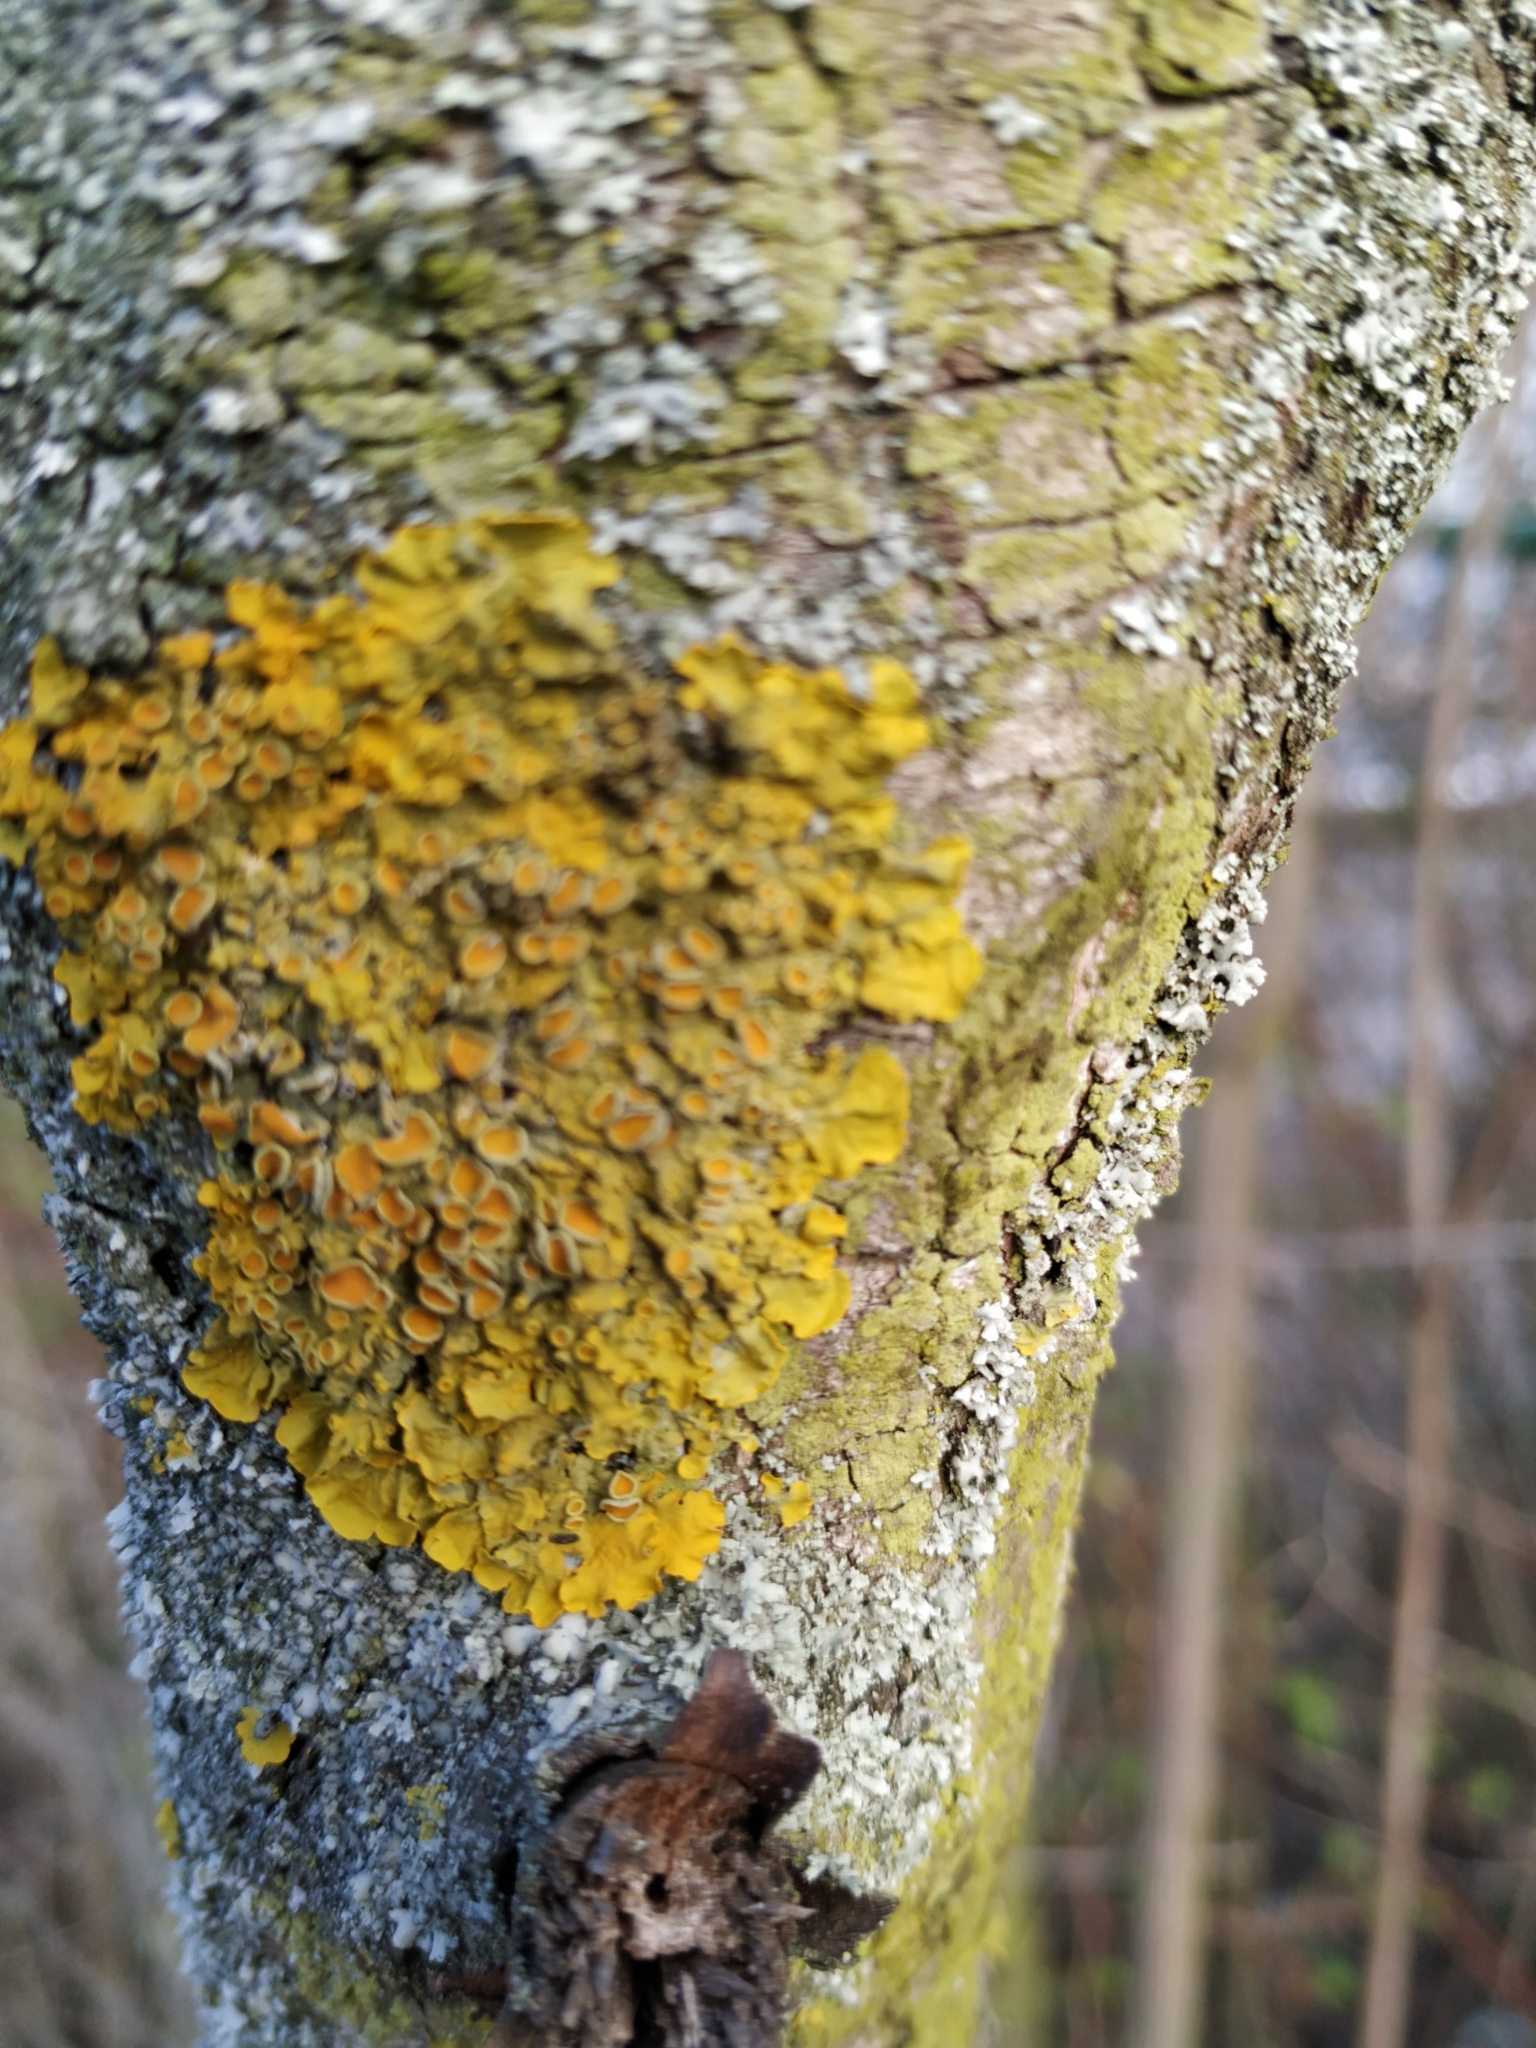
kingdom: Fungi
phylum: Ascomycota
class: Lecanoromycetes
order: Teloschistales
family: Teloschistaceae
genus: Xanthoria
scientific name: Xanthoria parietina
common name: Common orange lichen
